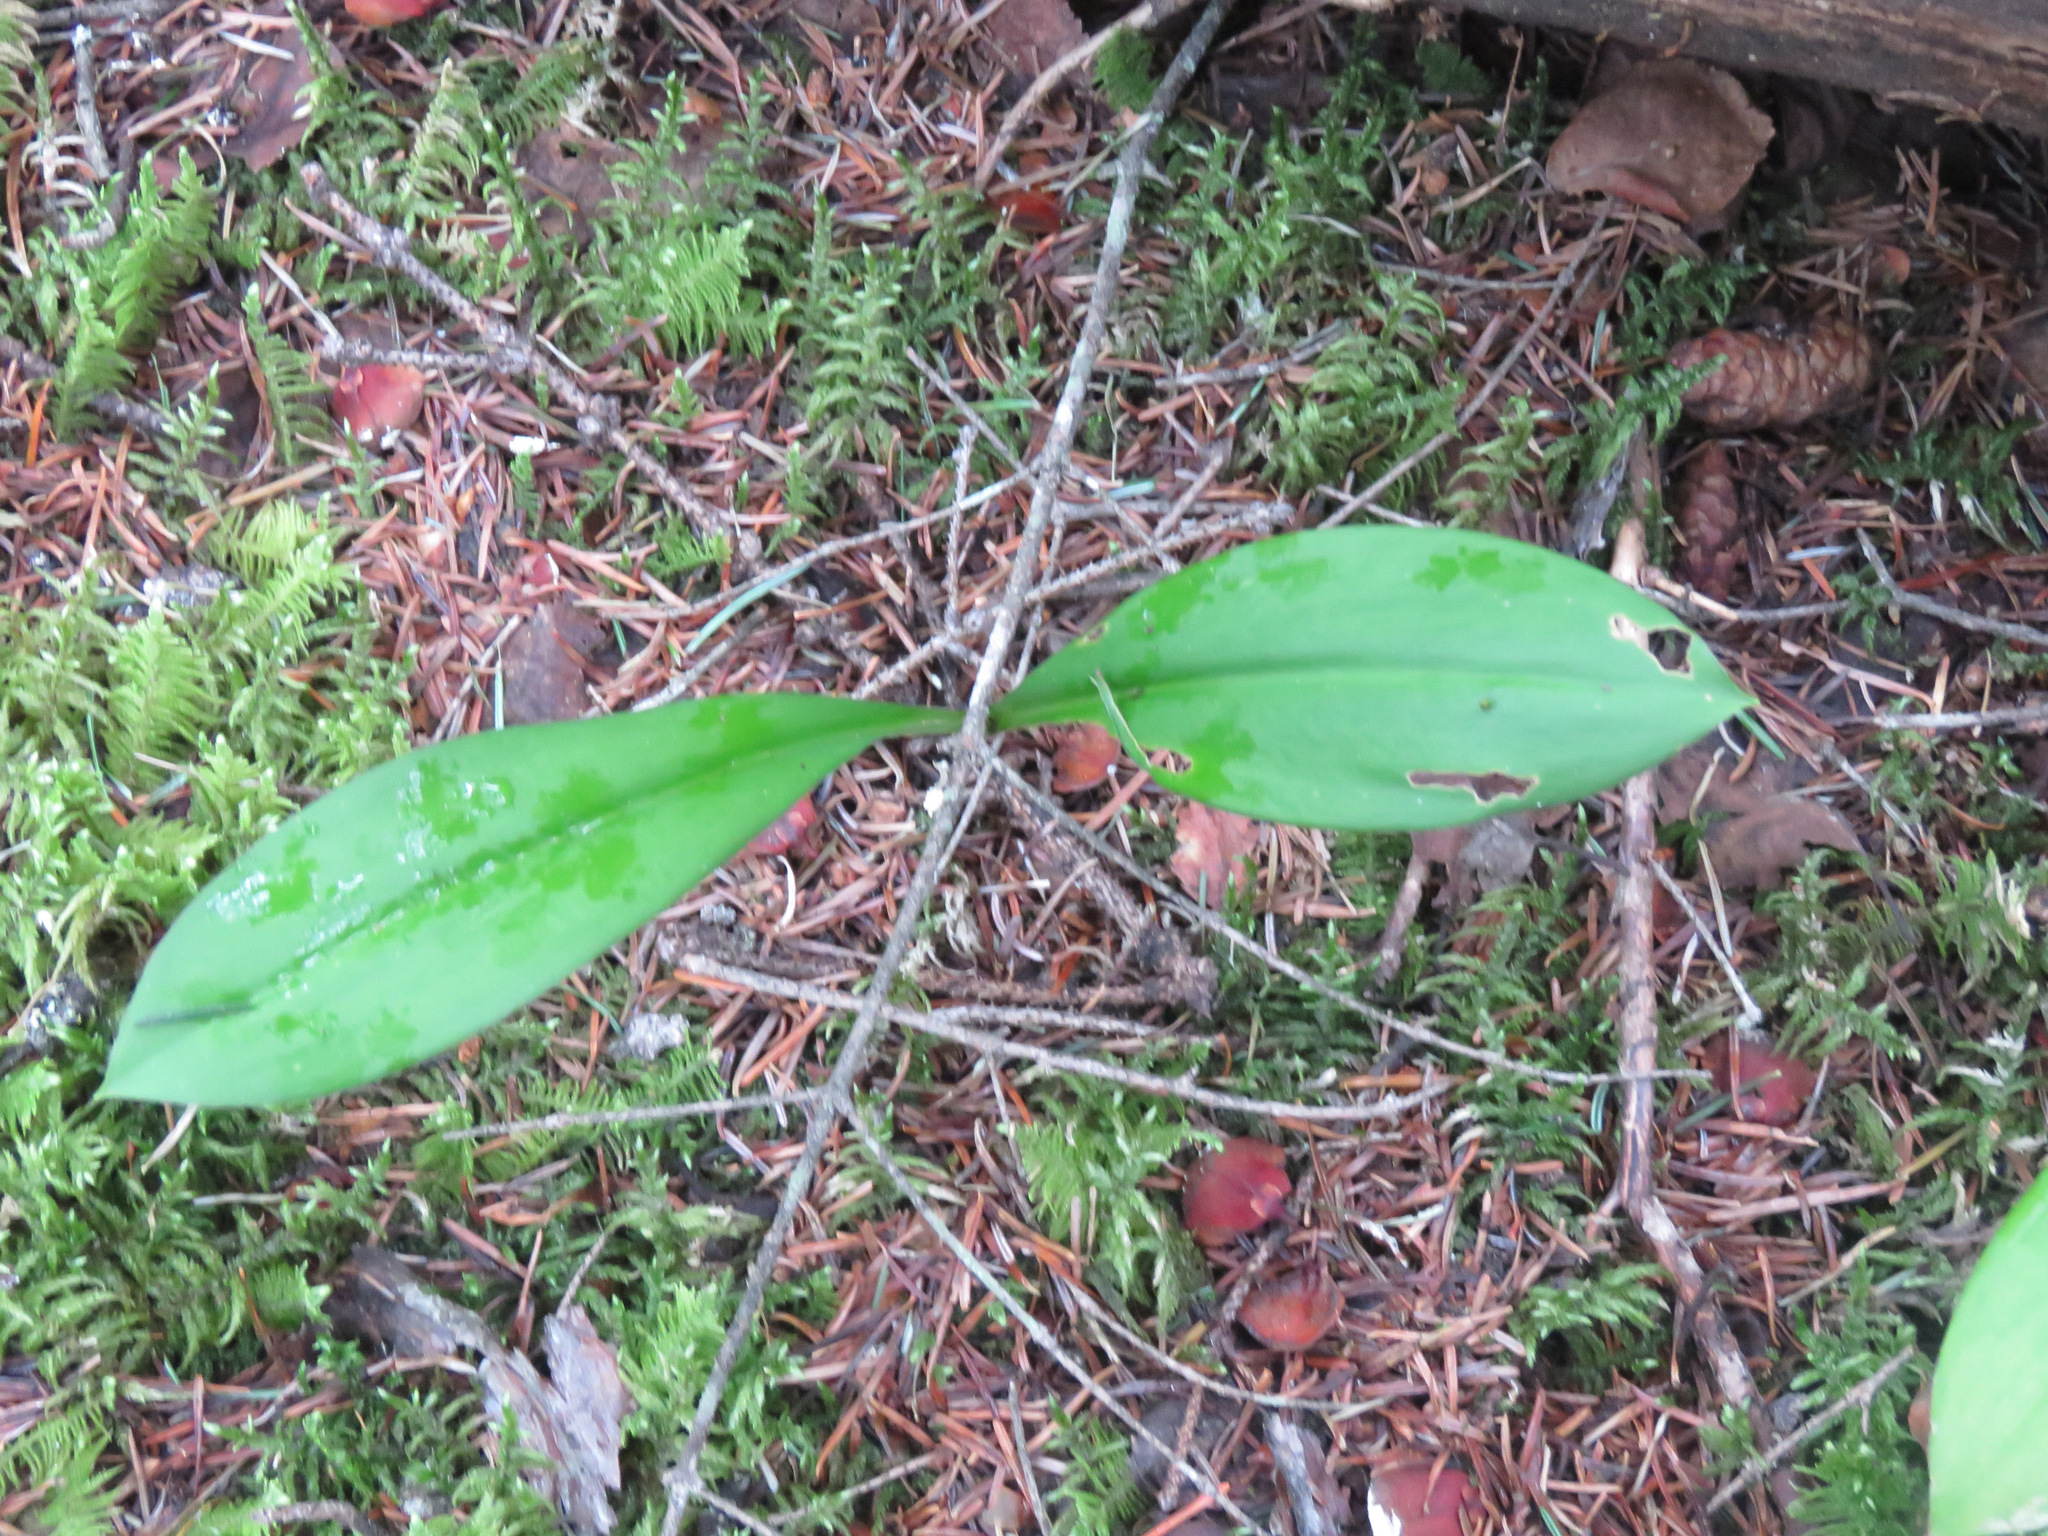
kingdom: Plantae
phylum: Tracheophyta
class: Liliopsida
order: Liliales
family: Liliaceae
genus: Clintonia
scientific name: Clintonia uniflora
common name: Queen's cup
